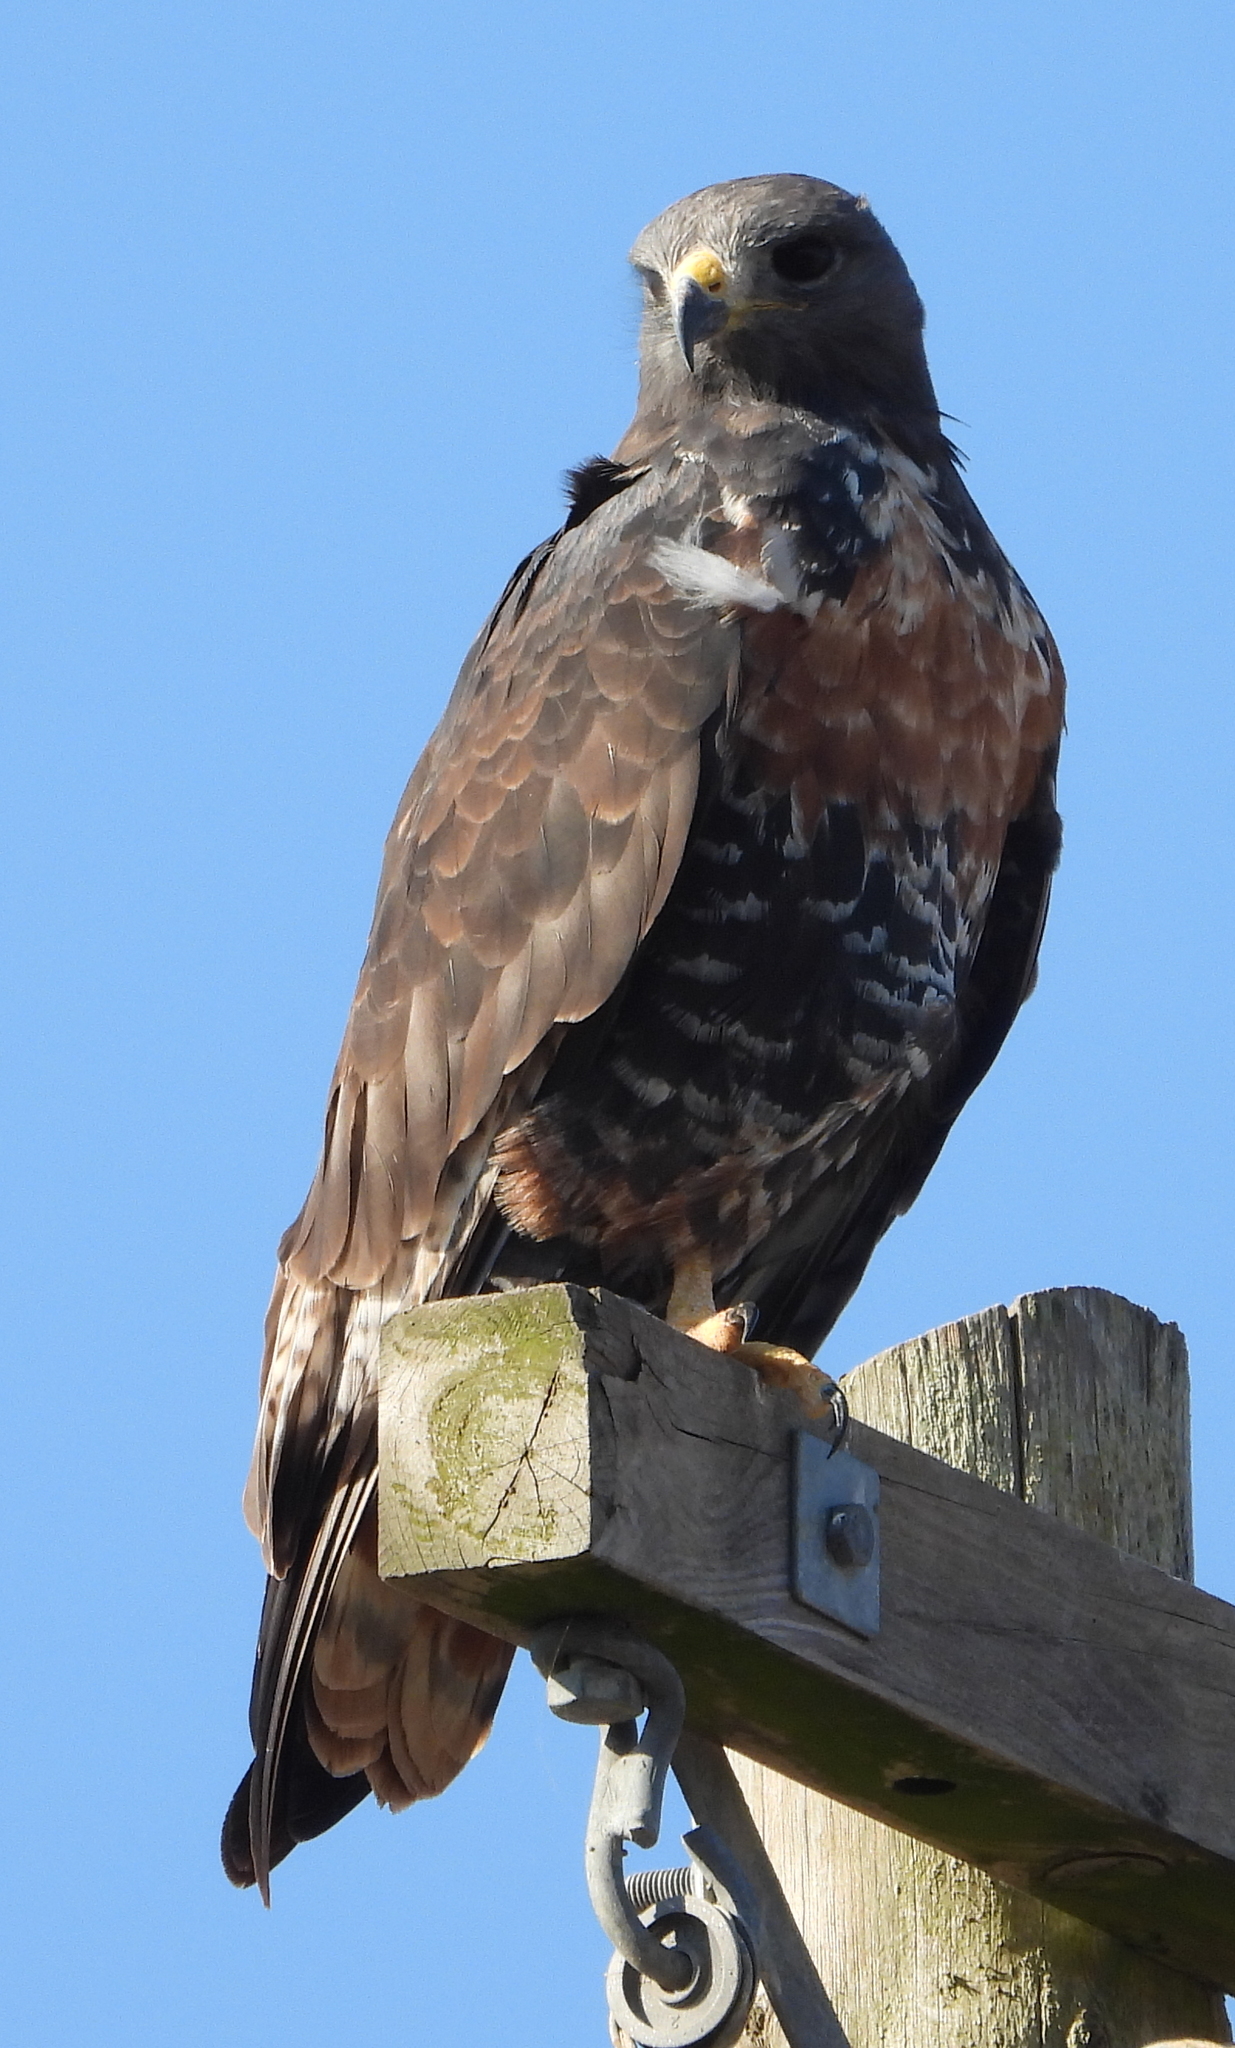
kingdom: Animalia
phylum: Chordata
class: Aves
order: Accipitriformes
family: Accipitridae
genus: Buteo
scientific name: Buteo rufofuscus
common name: Jackal buzzard
